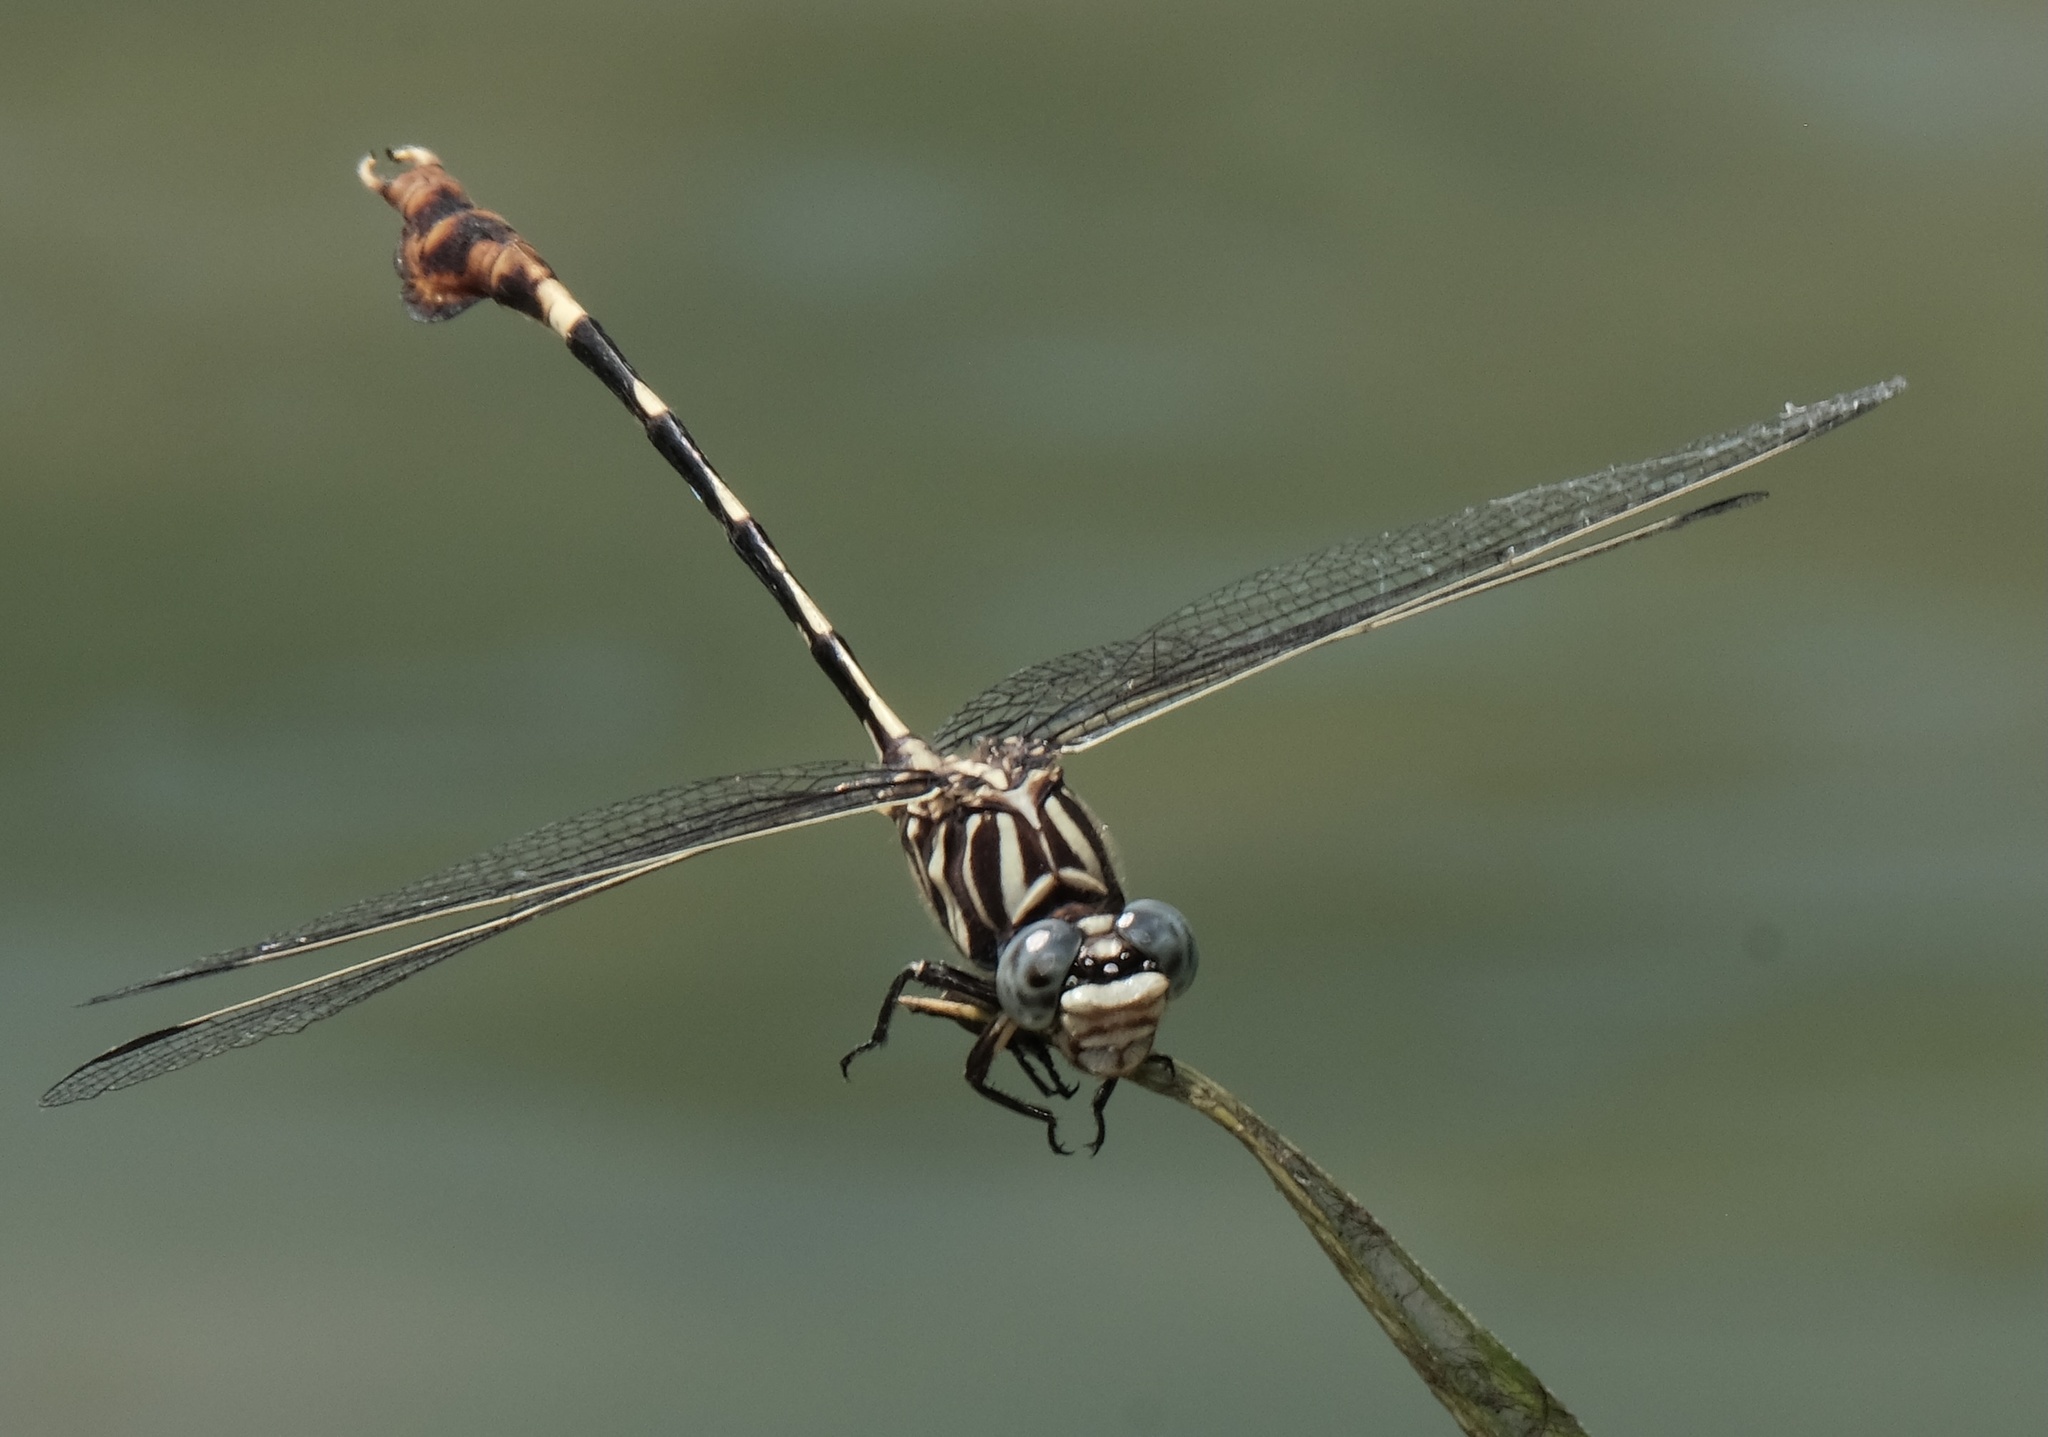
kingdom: Animalia
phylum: Arthropoda
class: Insecta
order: Odonata
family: Gomphidae
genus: Phyllogomphoides
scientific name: Phyllogomphoides albrighti
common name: Five-striped leaftail
